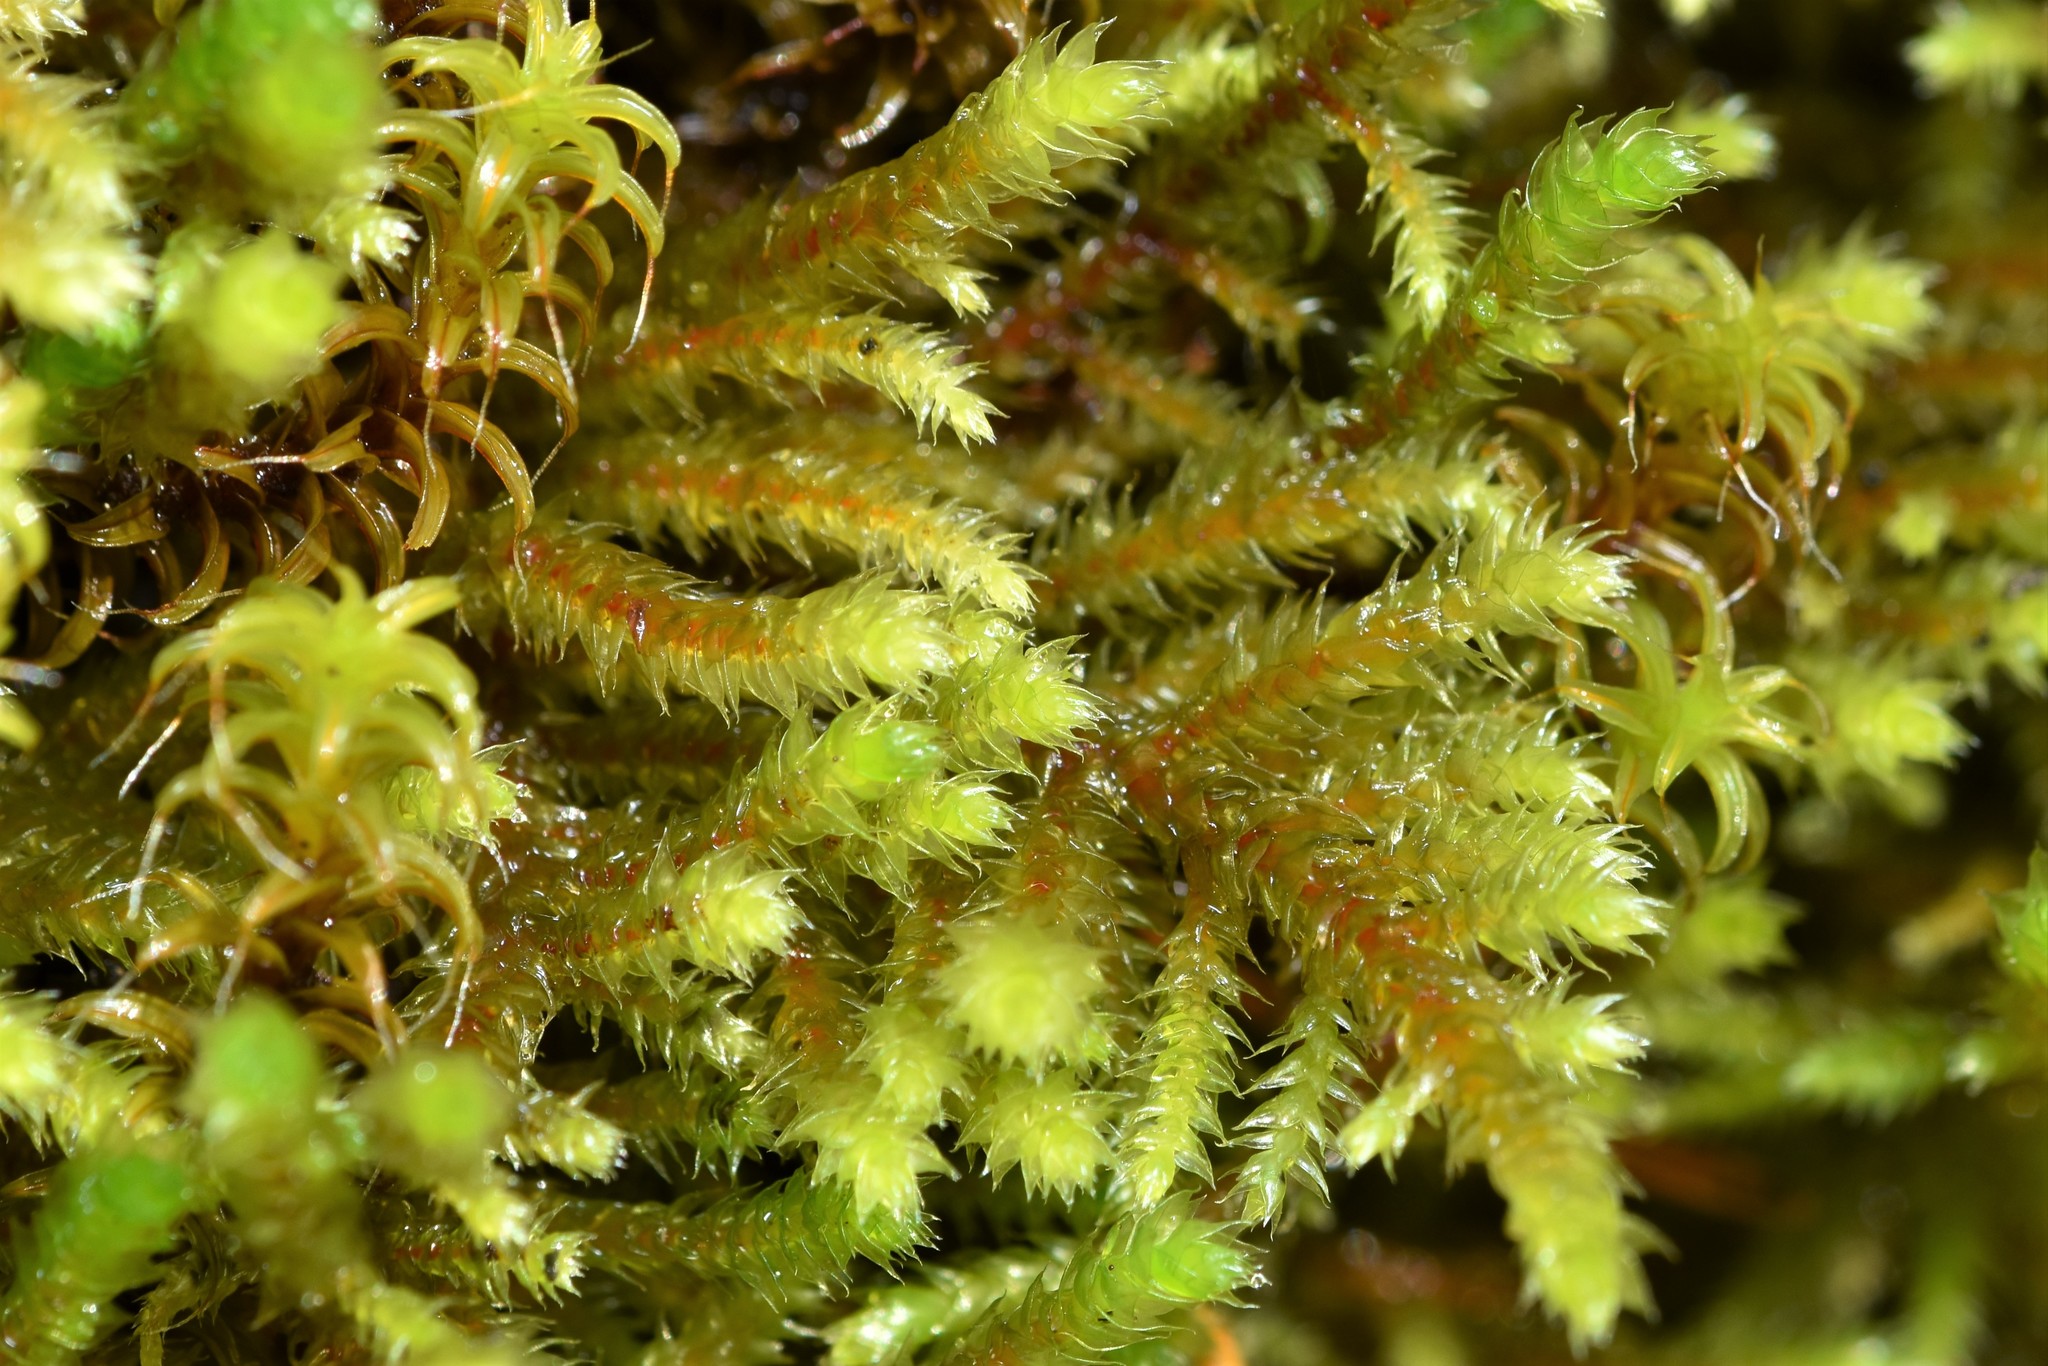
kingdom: Plantae
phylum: Bryophyta
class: Bryopsida
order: Hypnales
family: Antitrichiaceae
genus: Antitrichia
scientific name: Antitrichia californica
